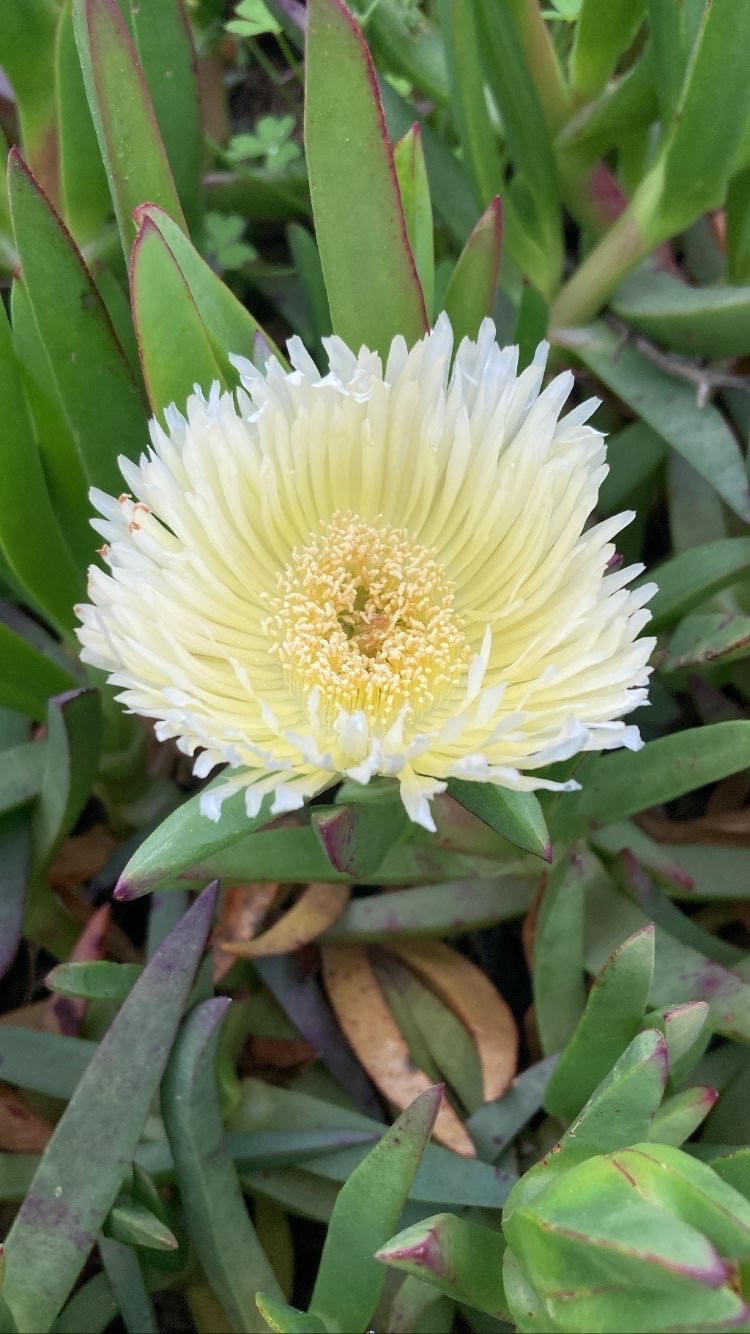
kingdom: Plantae
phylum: Tracheophyta
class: Magnoliopsida
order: Caryophyllales
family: Aizoaceae
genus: Carpobrotus
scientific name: Carpobrotus edulis
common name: Hottentot-fig
